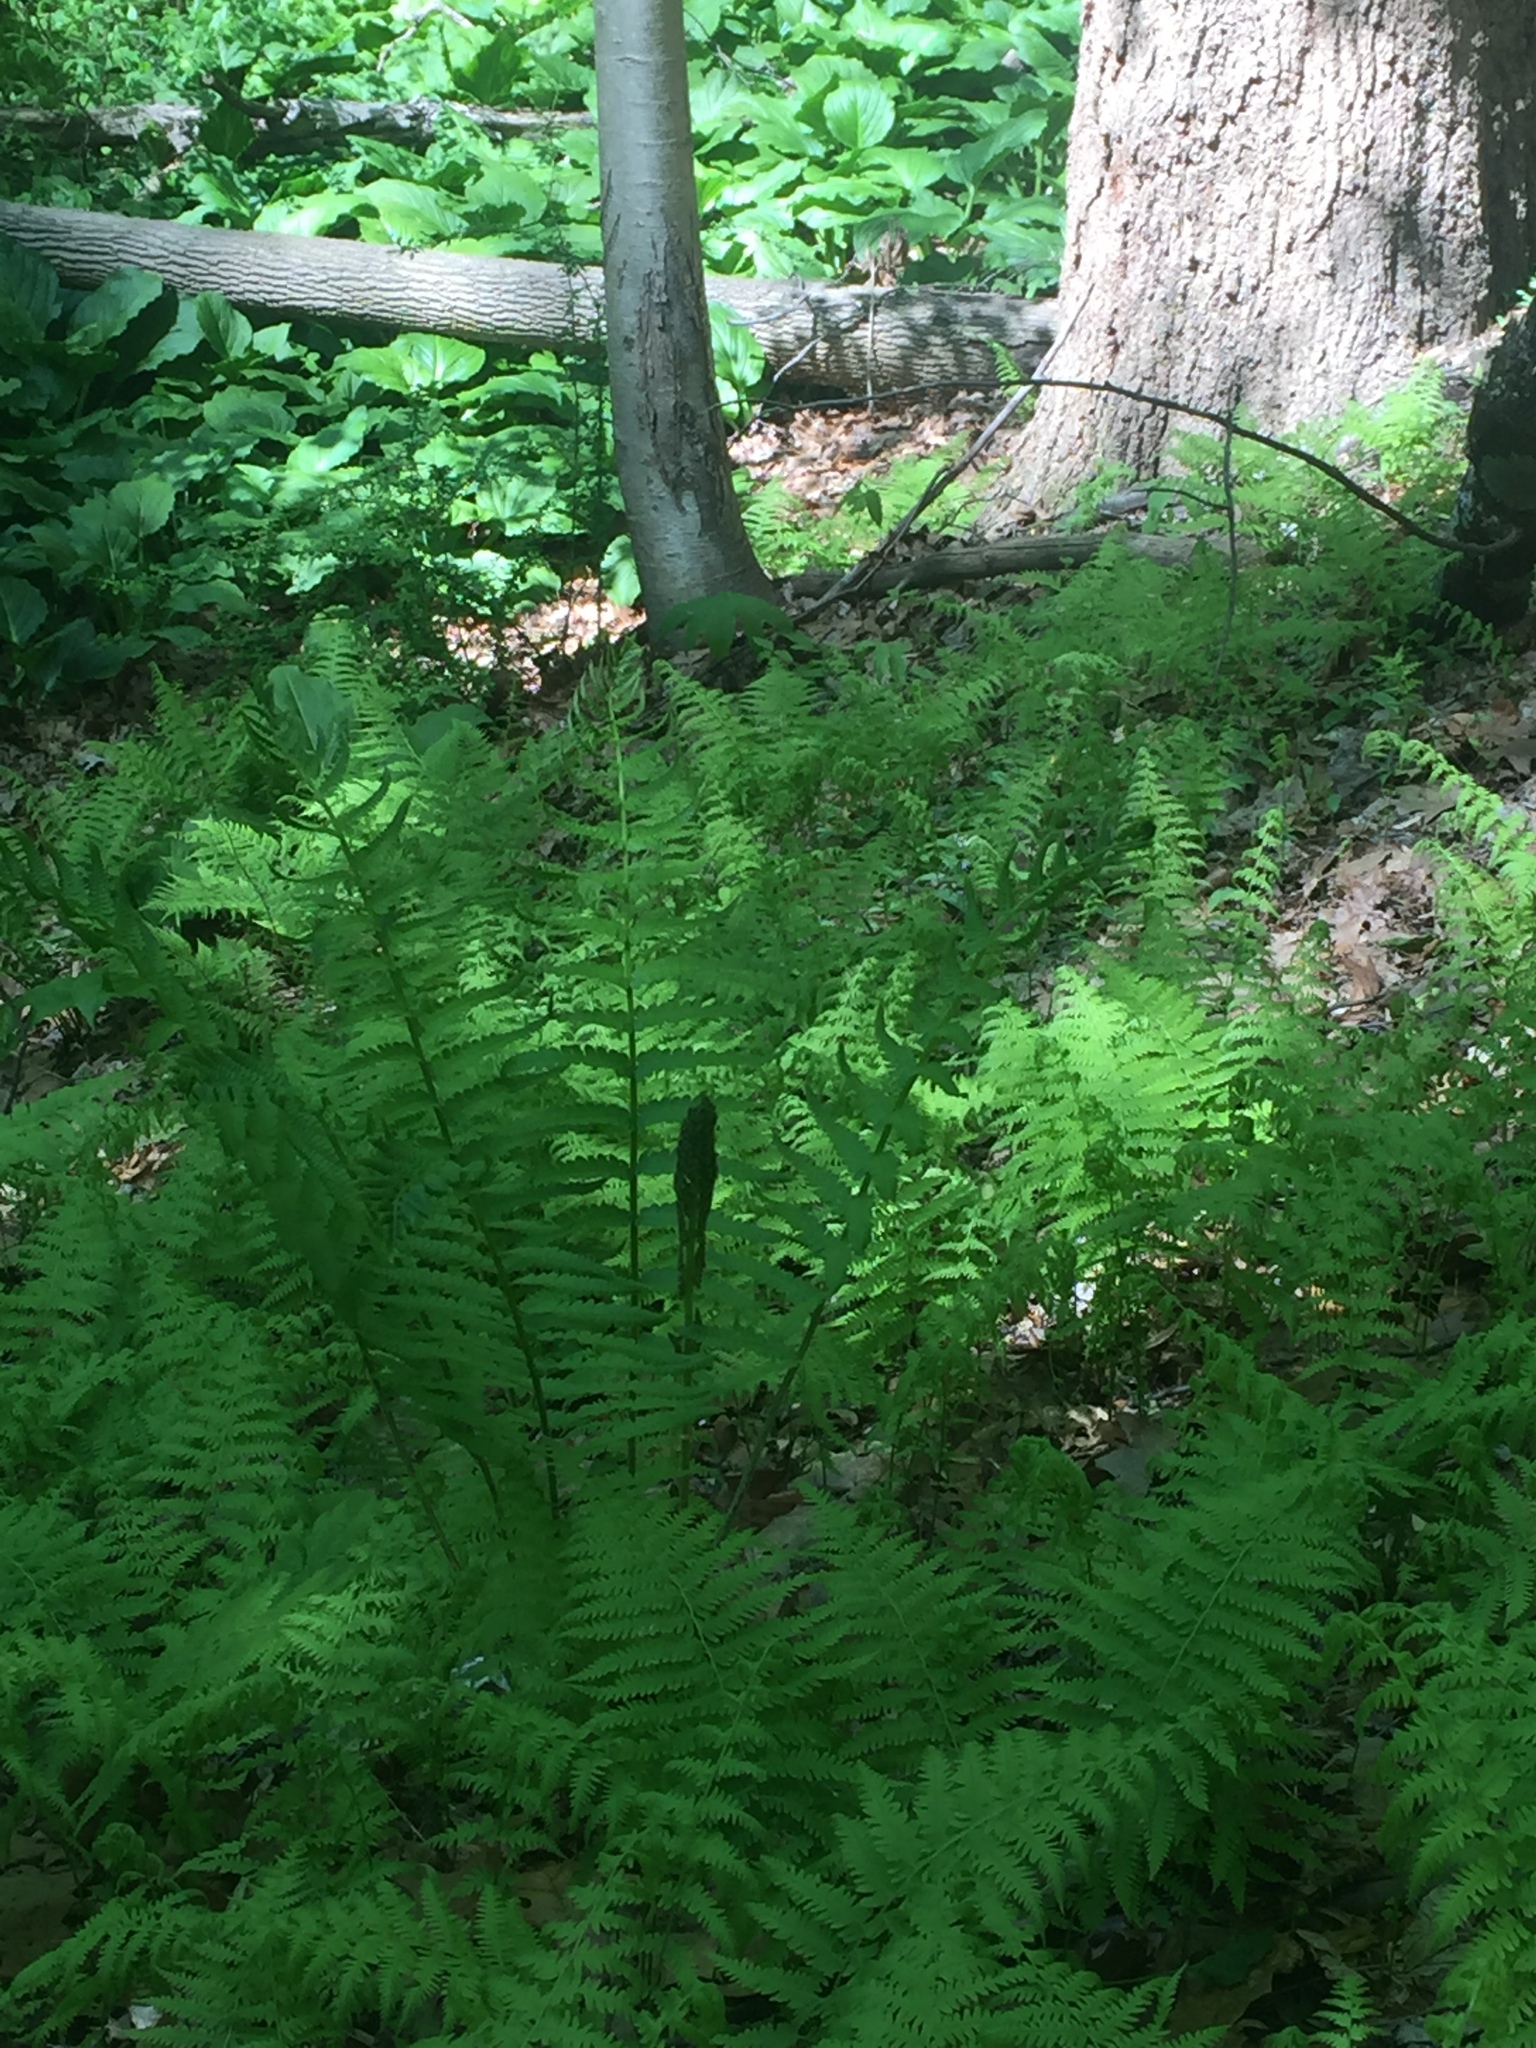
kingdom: Plantae
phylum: Tracheophyta
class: Polypodiopsida
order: Osmundales
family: Osmundaceae
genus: Osmundastrum
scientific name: Osmundastrum cinnamomeum
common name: Cinnamon fern
